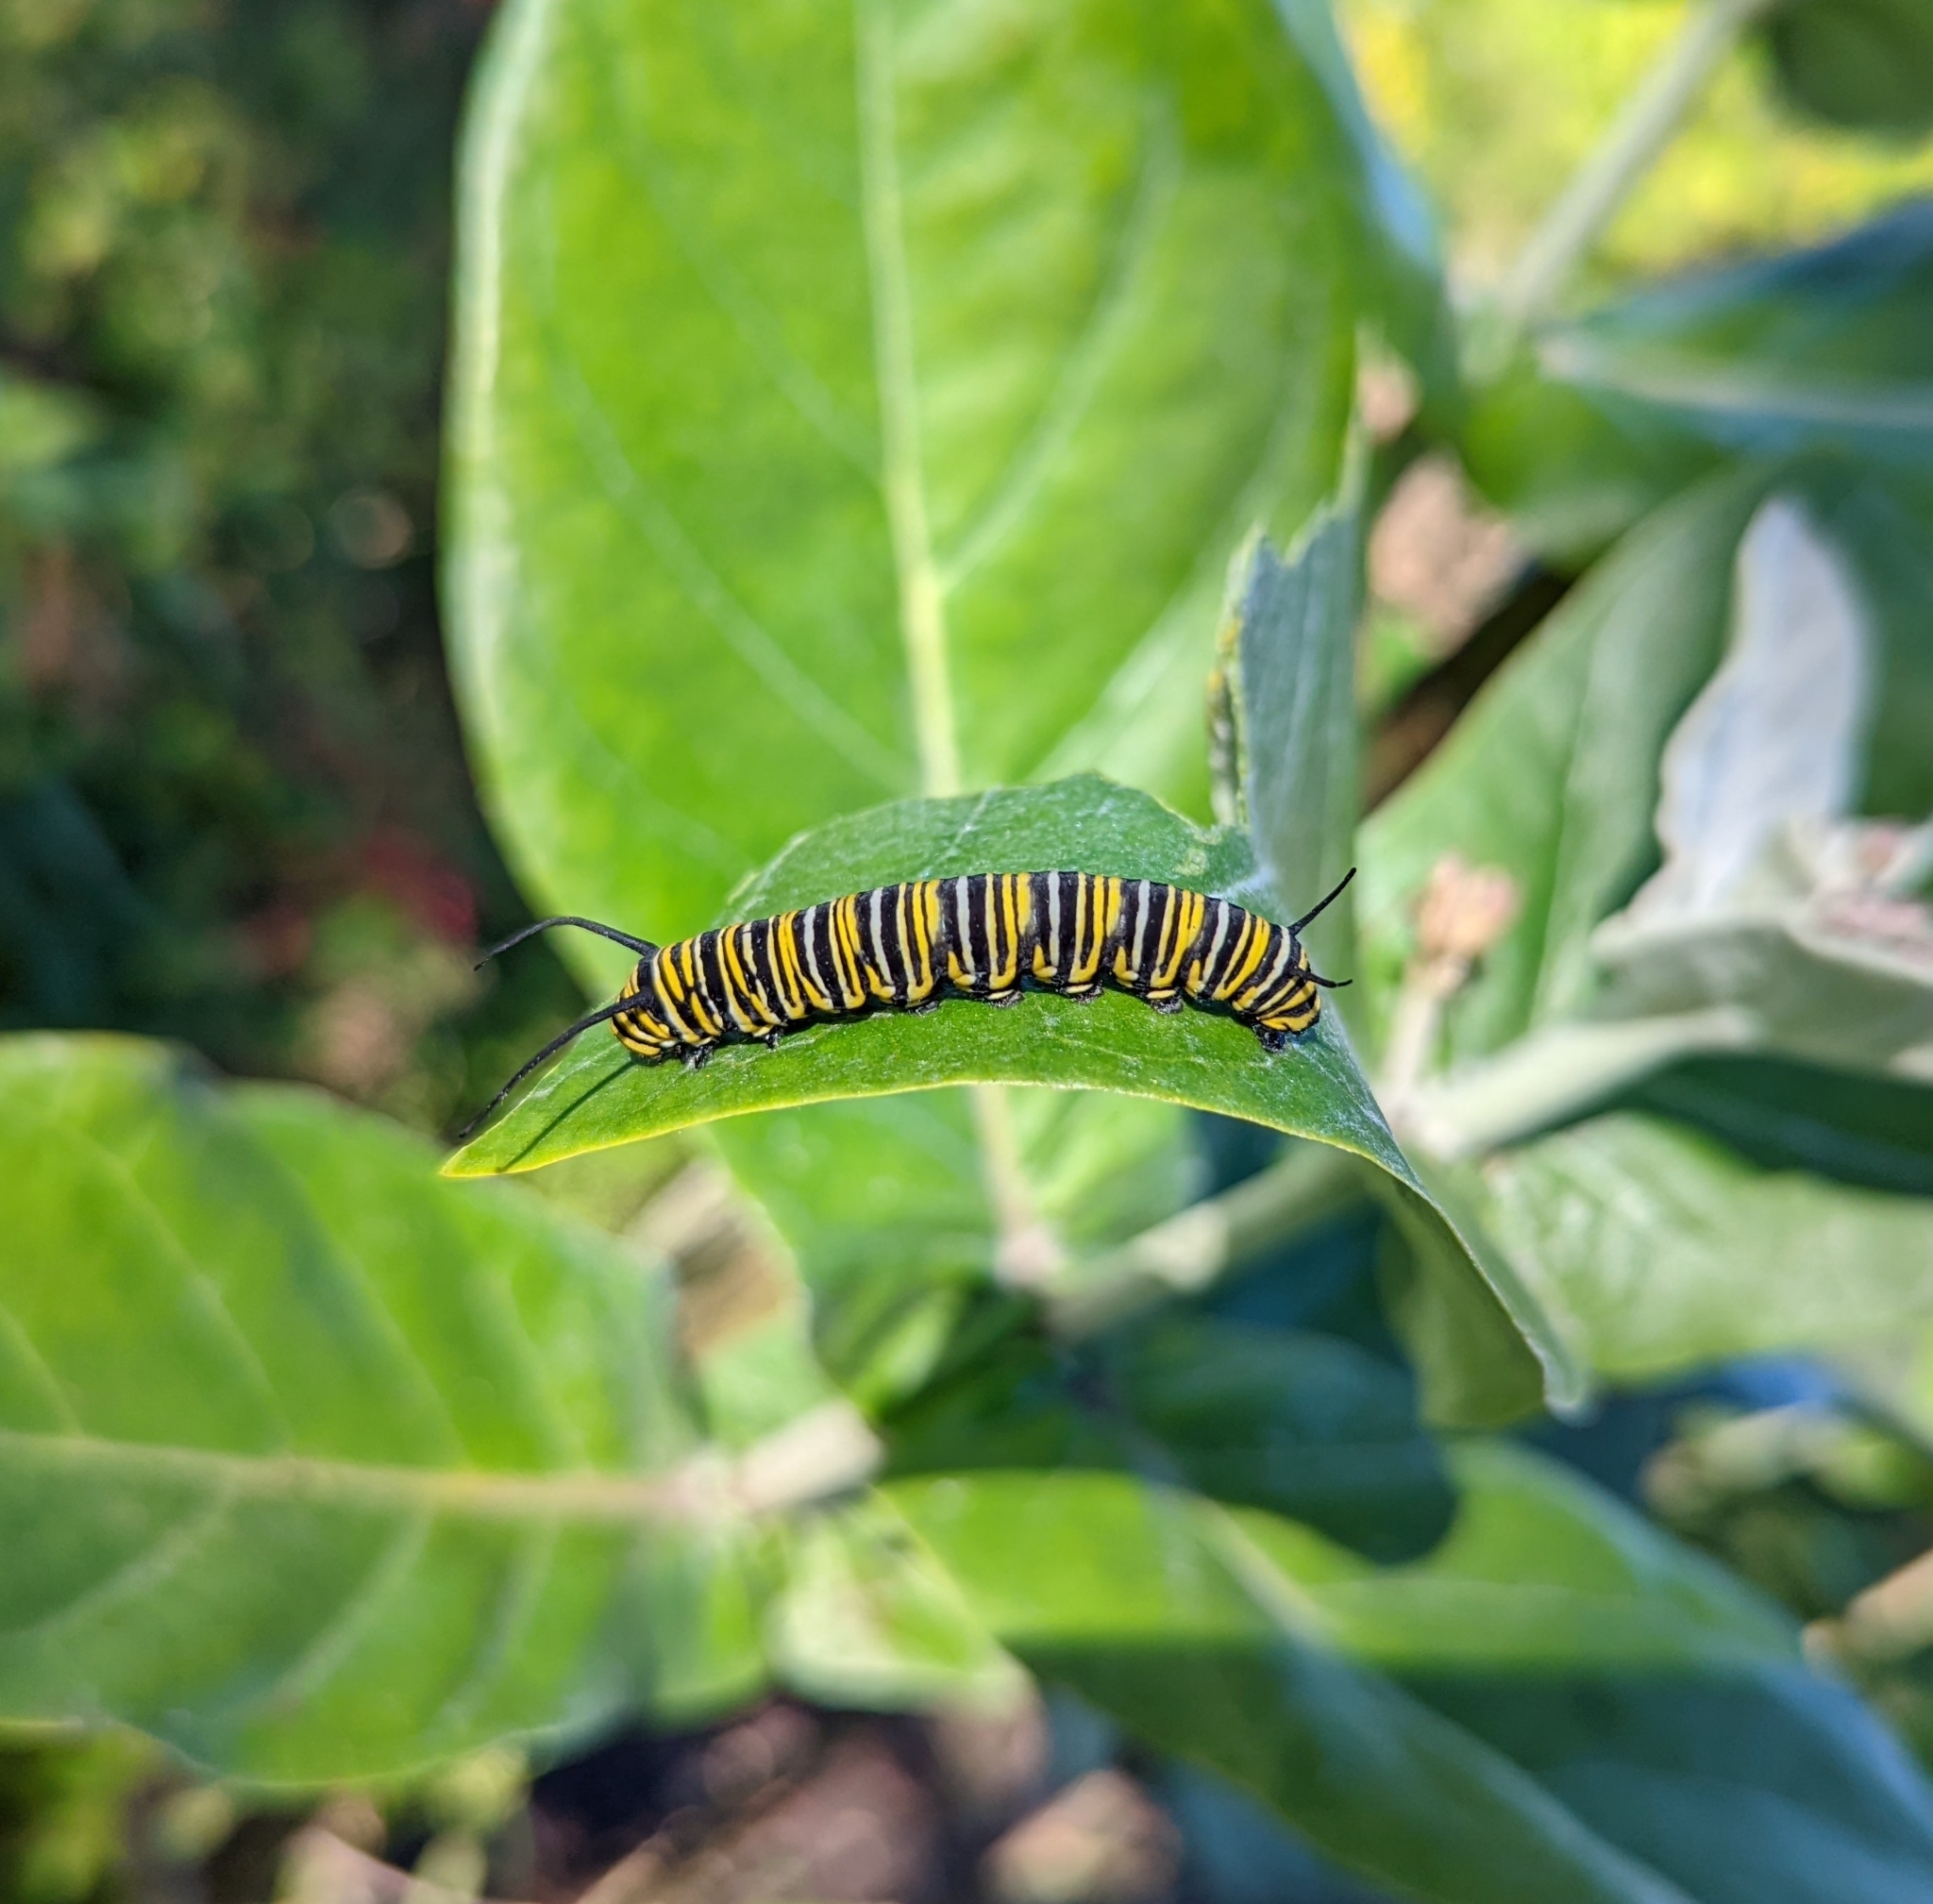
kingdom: Animalia
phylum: Arthropoda
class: Insecta
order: Lepidoptera
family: Nymphalidae
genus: Danaus
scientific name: Danaus plexippus
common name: Monarch
